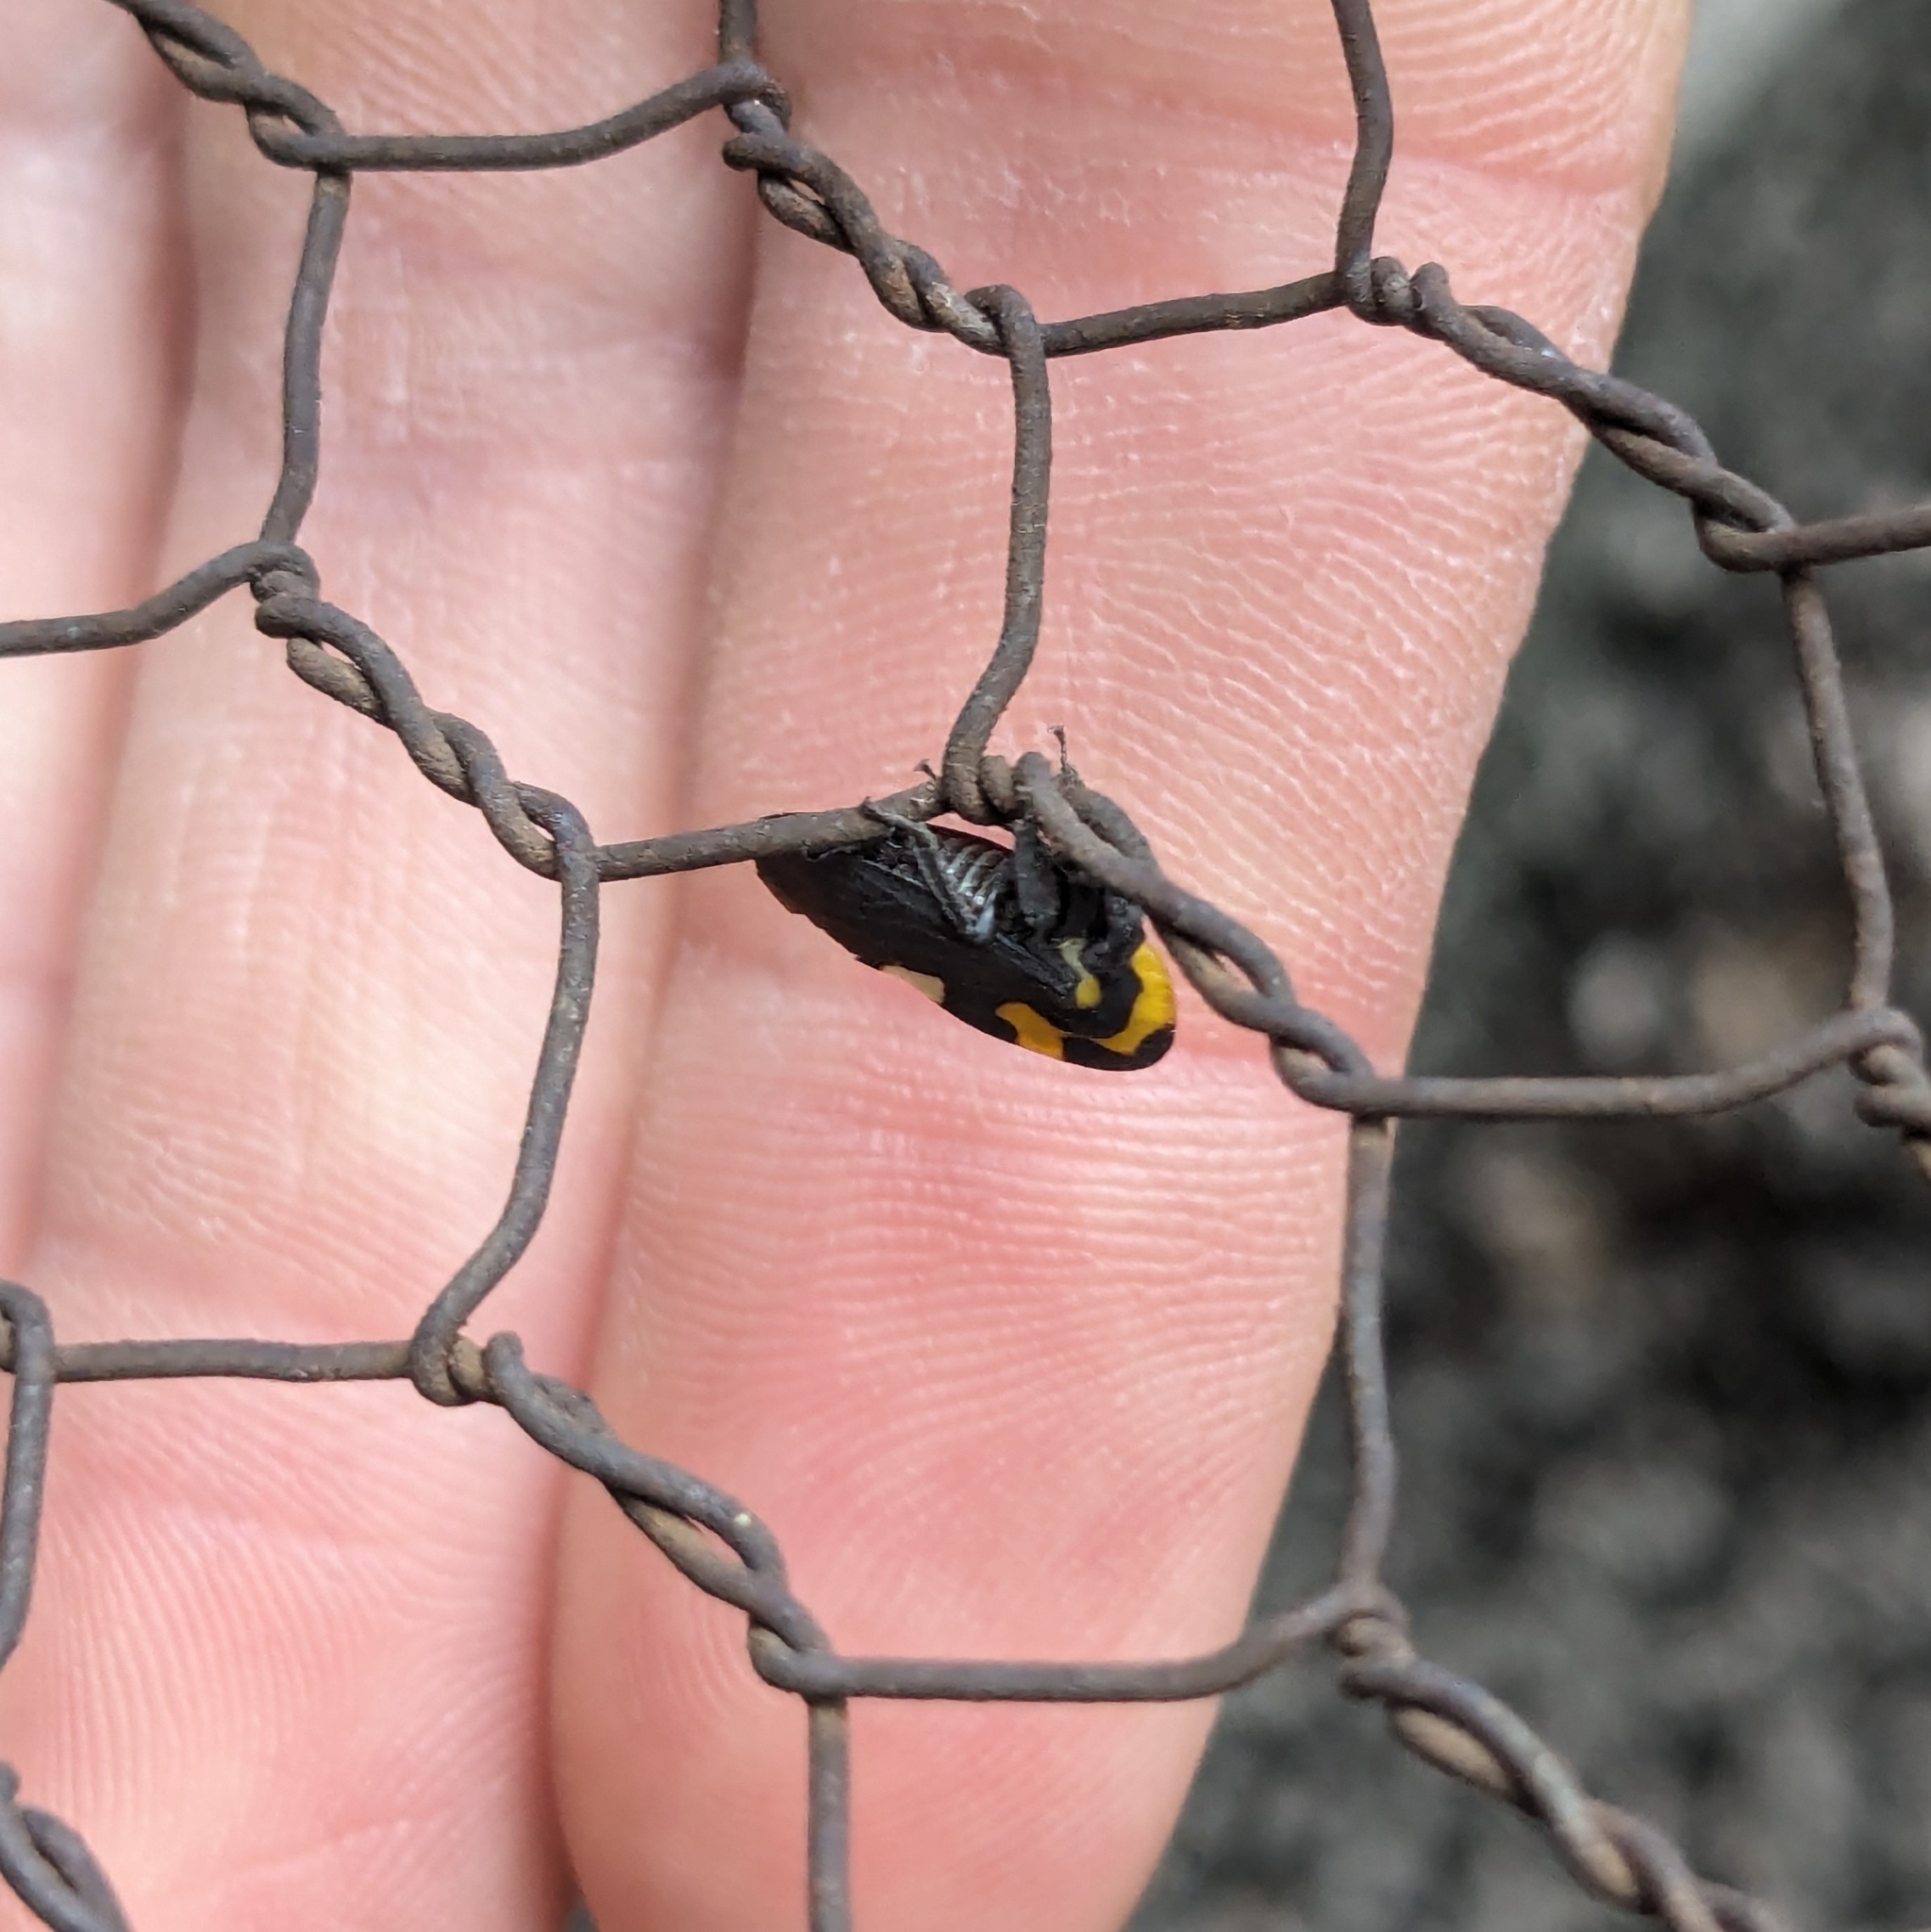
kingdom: Animalia
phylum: Arthropoda
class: Insecta
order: Hemiptera
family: Membracidae
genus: Membracis
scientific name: Membracis mexicana
